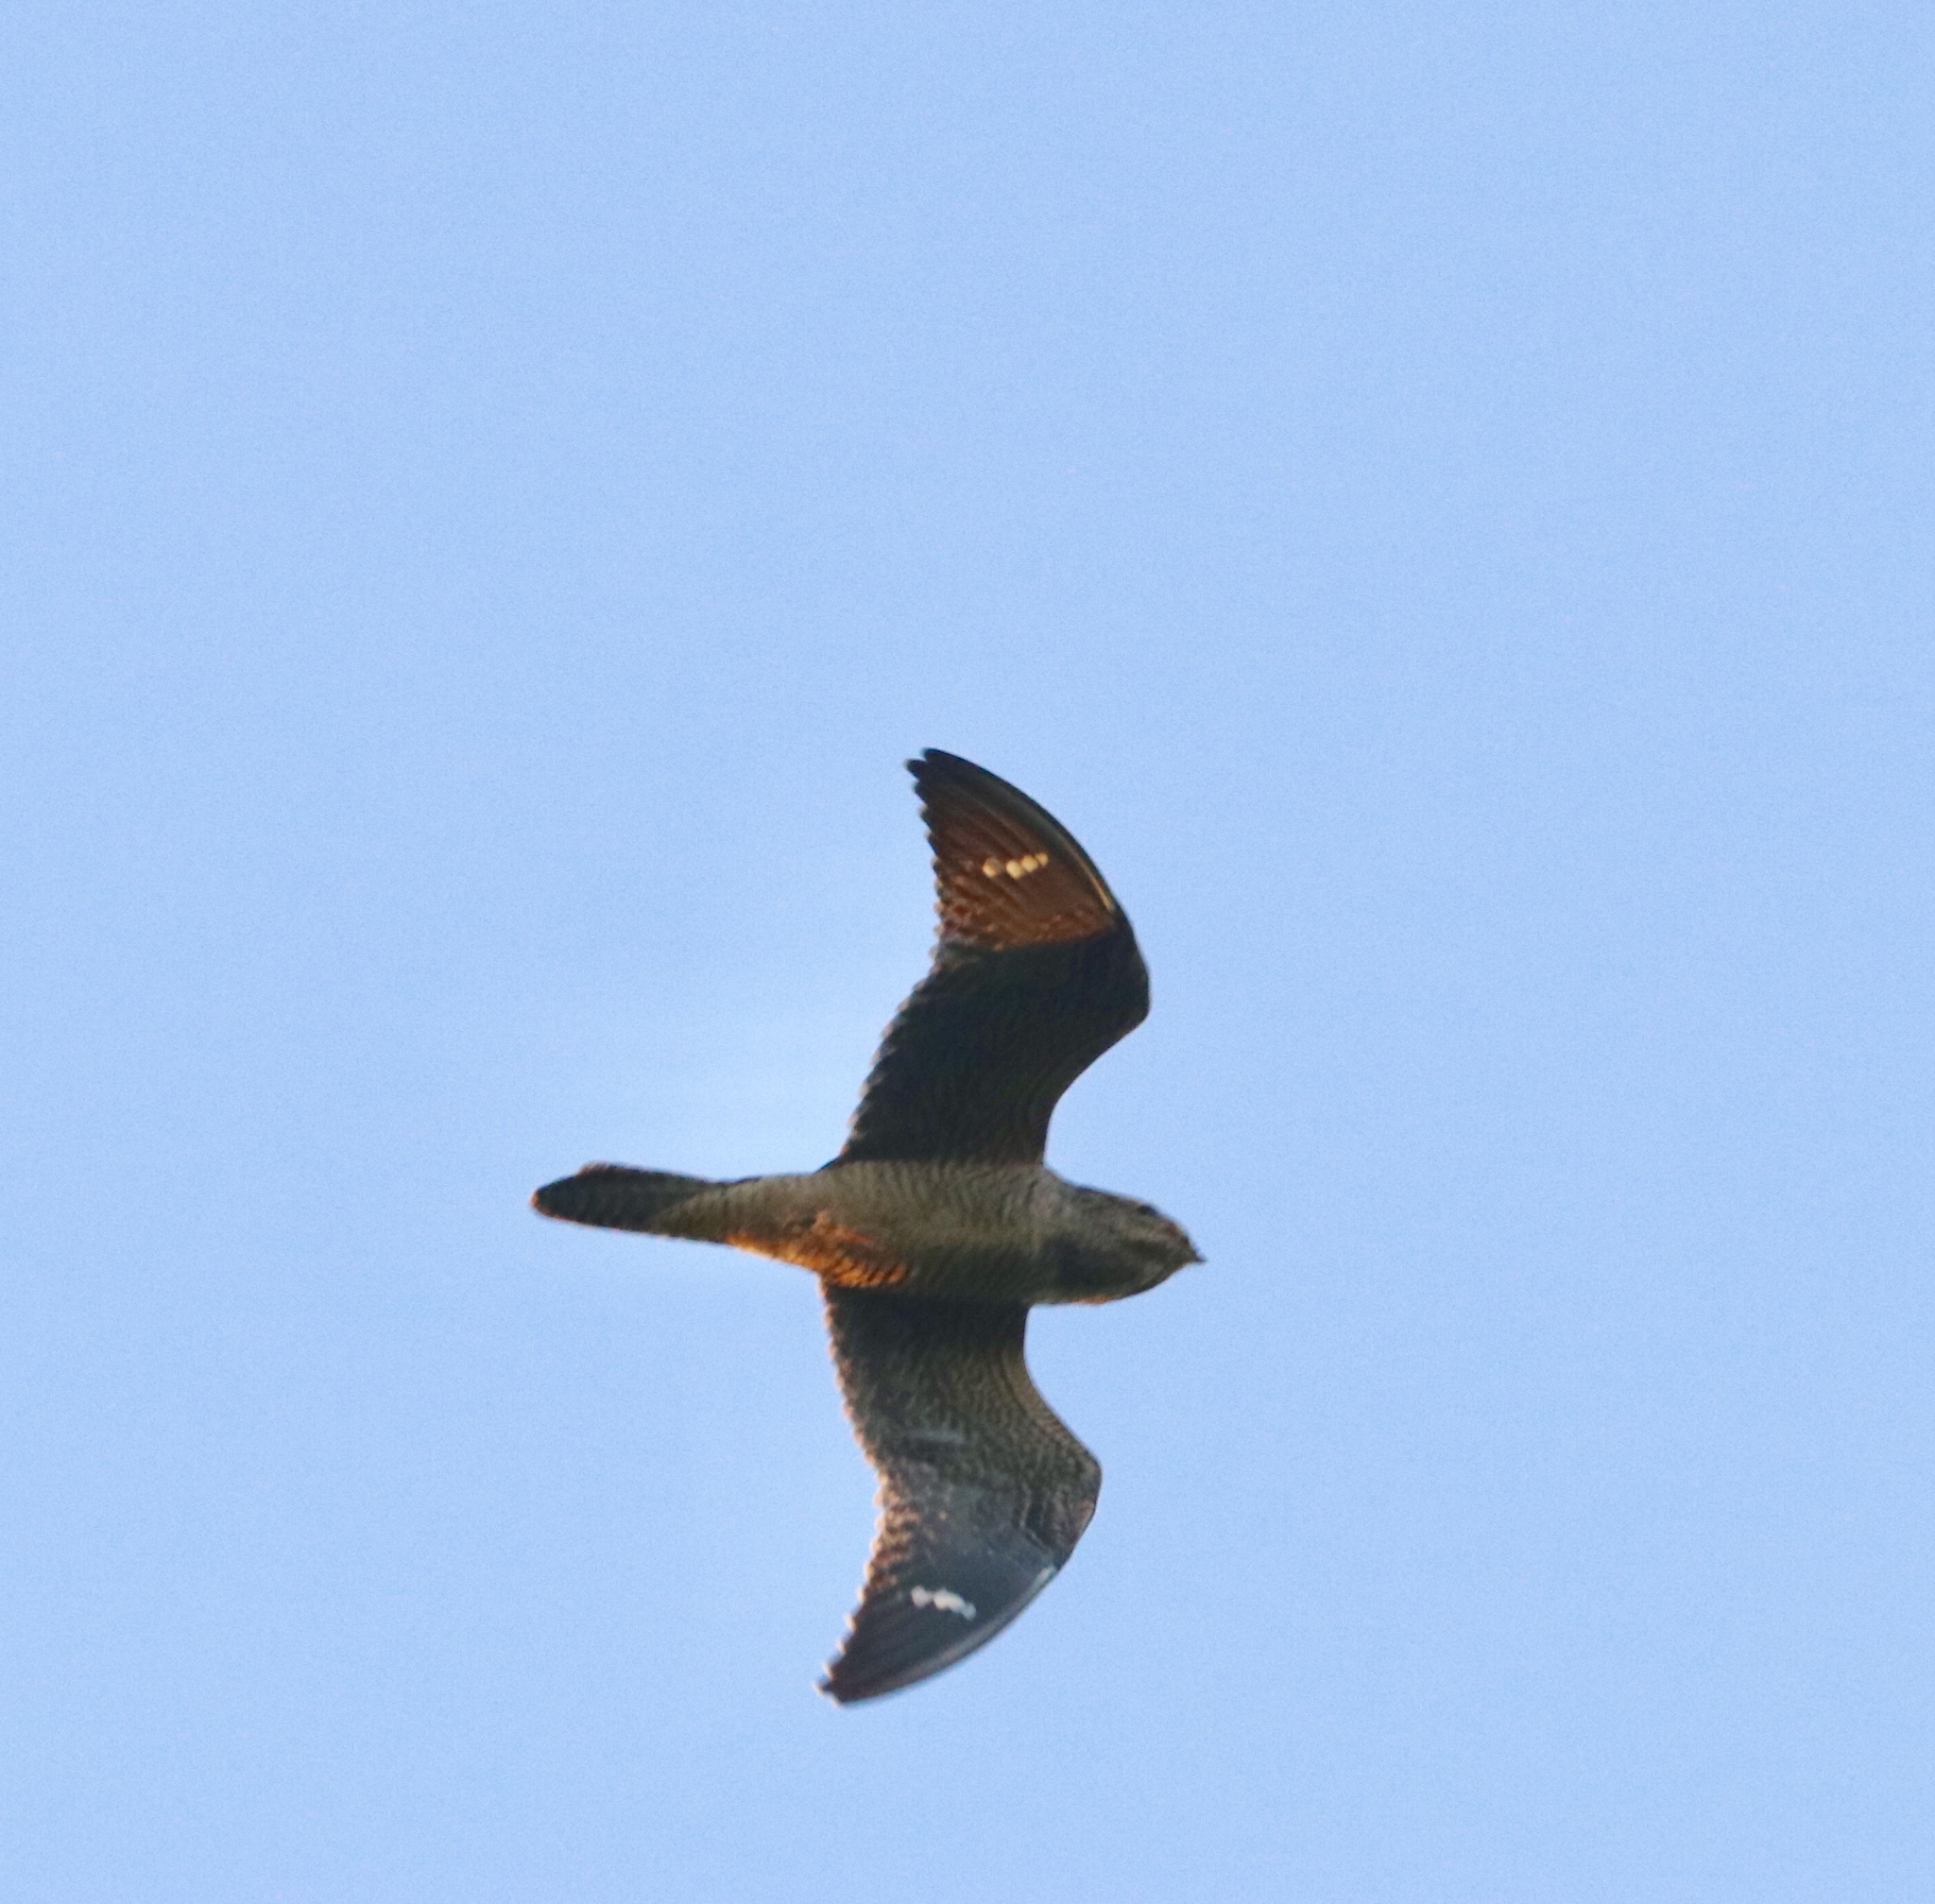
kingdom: Animalia
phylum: Chordata
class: Aves
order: Caprimulgiformes
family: Caprimulgidae
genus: Chordeiles
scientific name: Chordeiles gundlachii
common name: Antillean nighthawk
